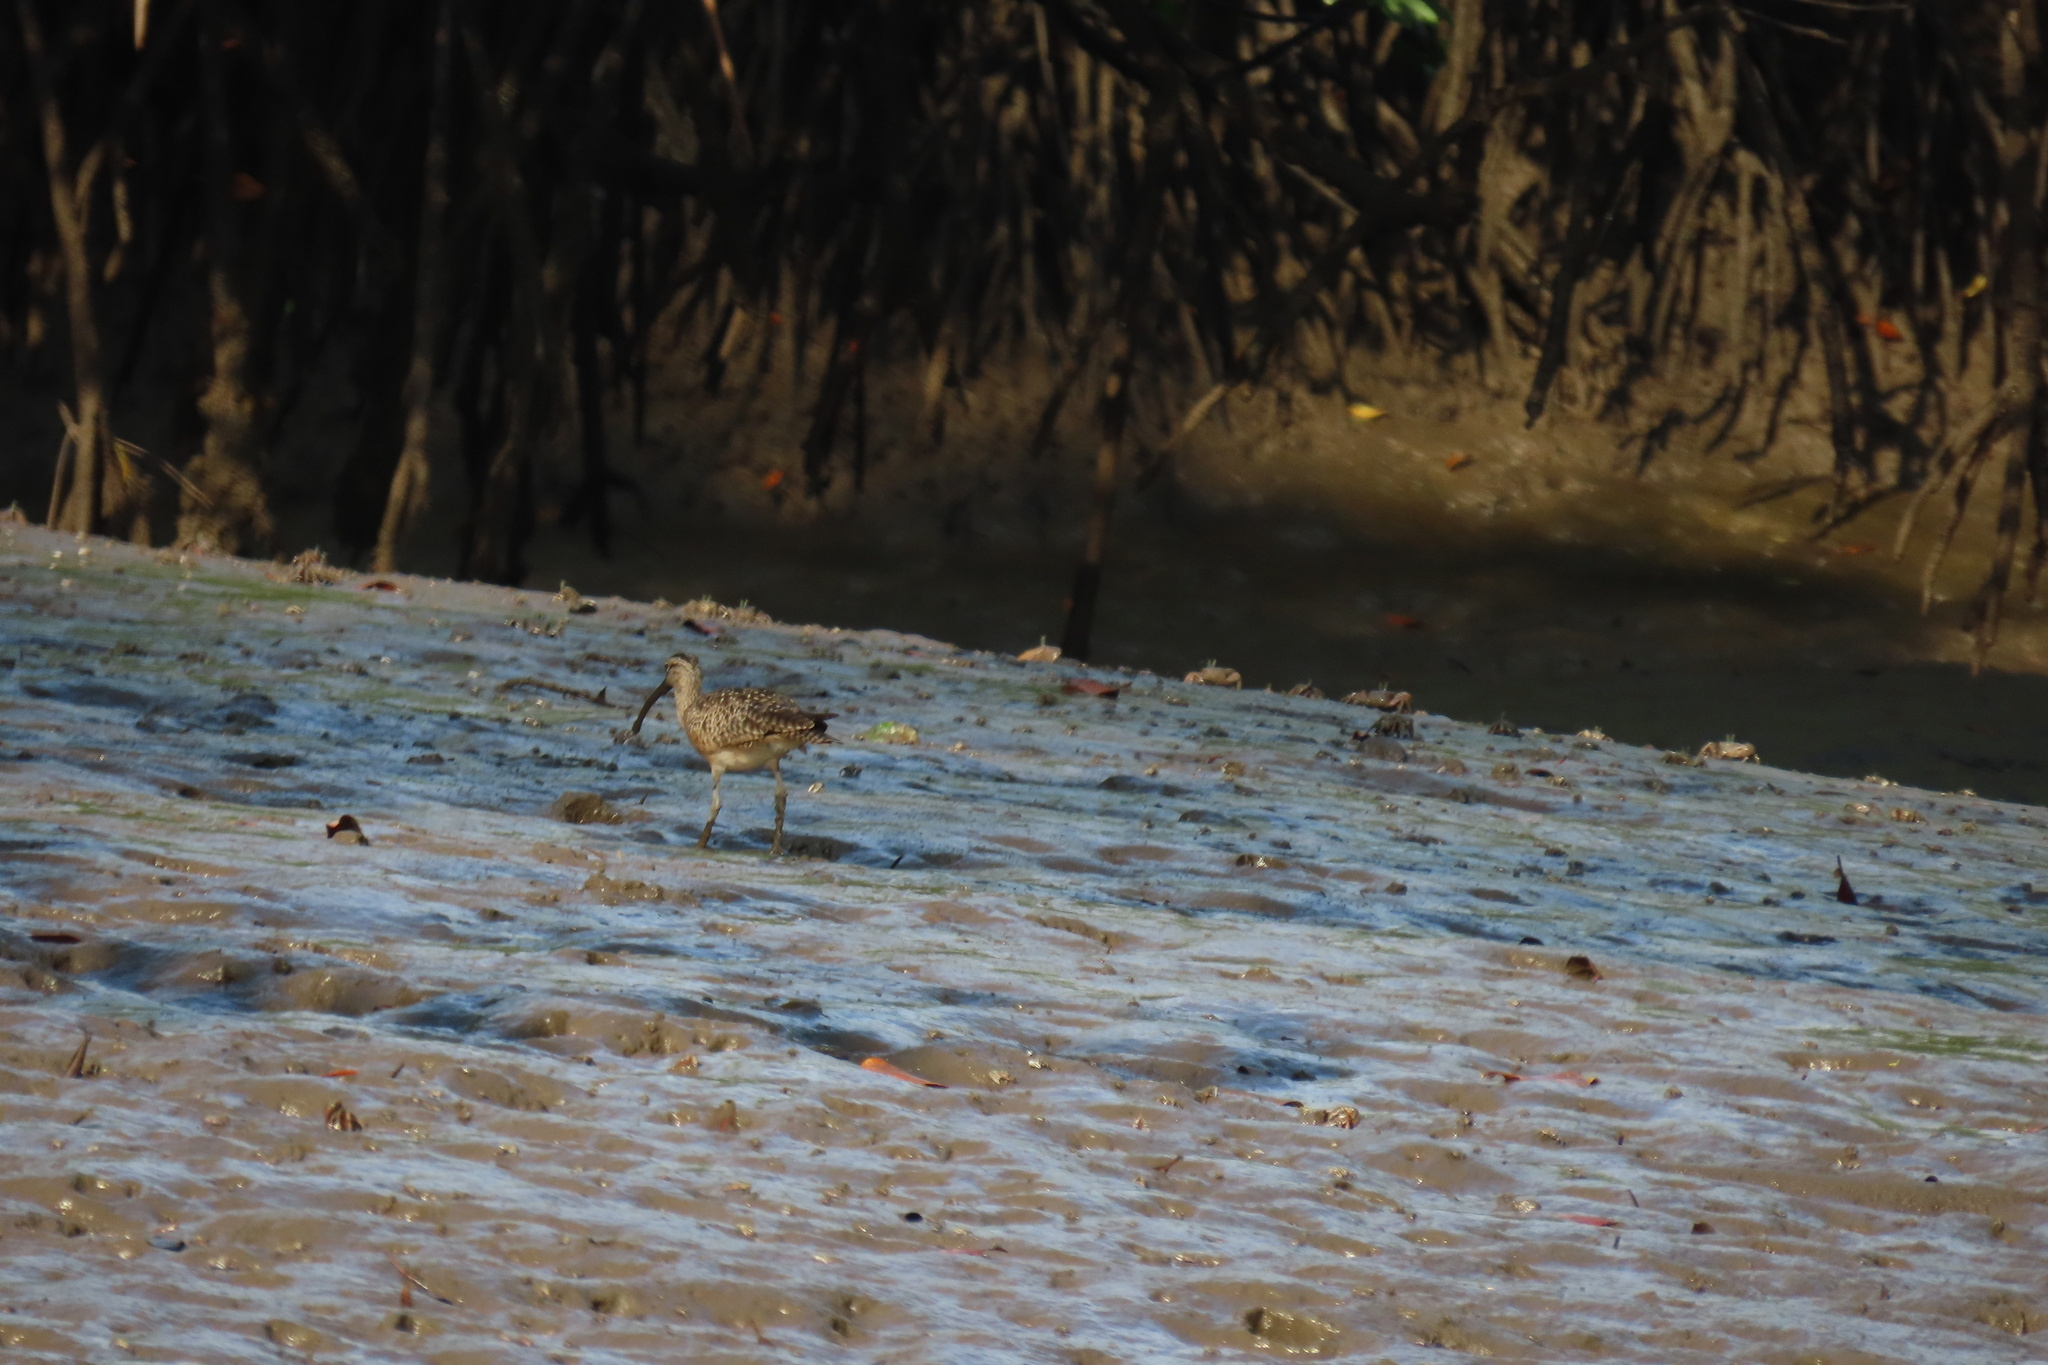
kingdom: Animalia
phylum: Chordata
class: Aves
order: Charadriiformes
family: Scolopacidae
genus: Numenius
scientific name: Numenius phaeopus
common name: Whimbrel
